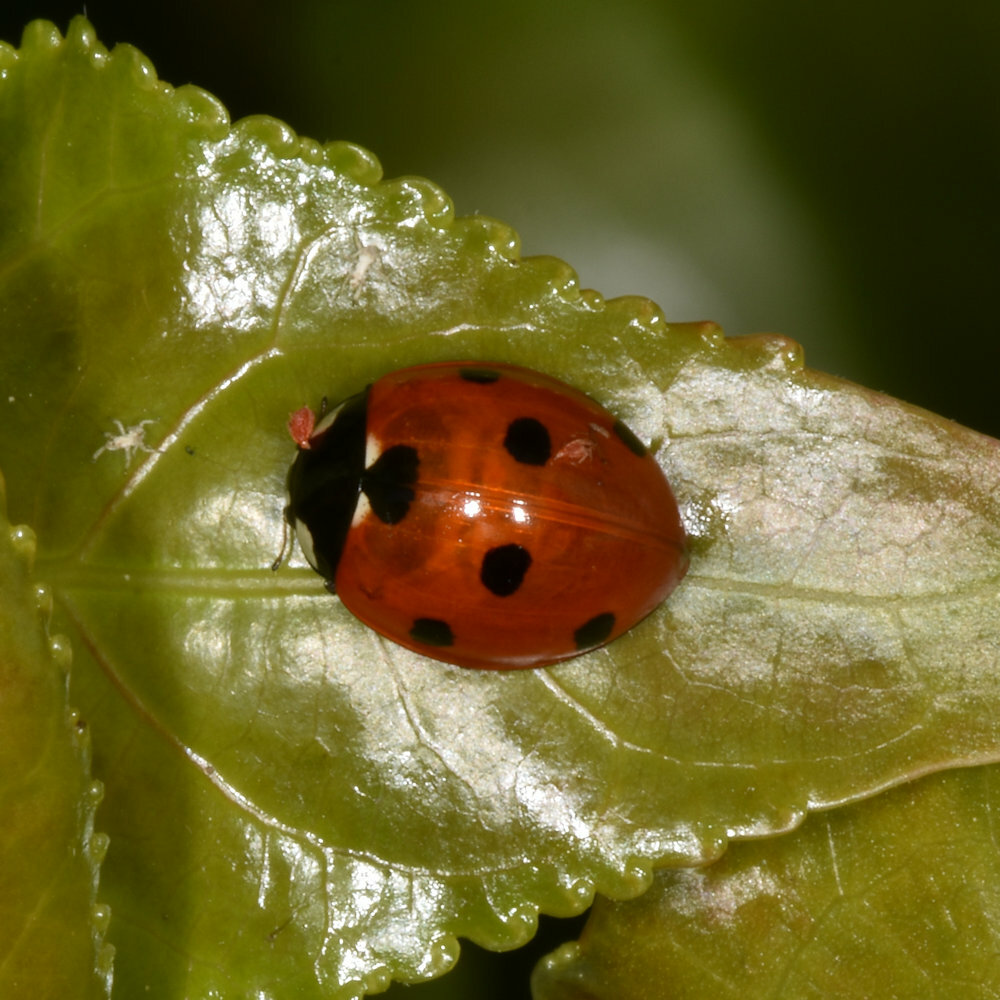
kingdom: Animalia
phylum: Arthropoda
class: Insecta
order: Coleoptera
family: Coccinellidae
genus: Coccinella
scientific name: Coccinella septempunctata
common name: Sevenspotted lady beetle
